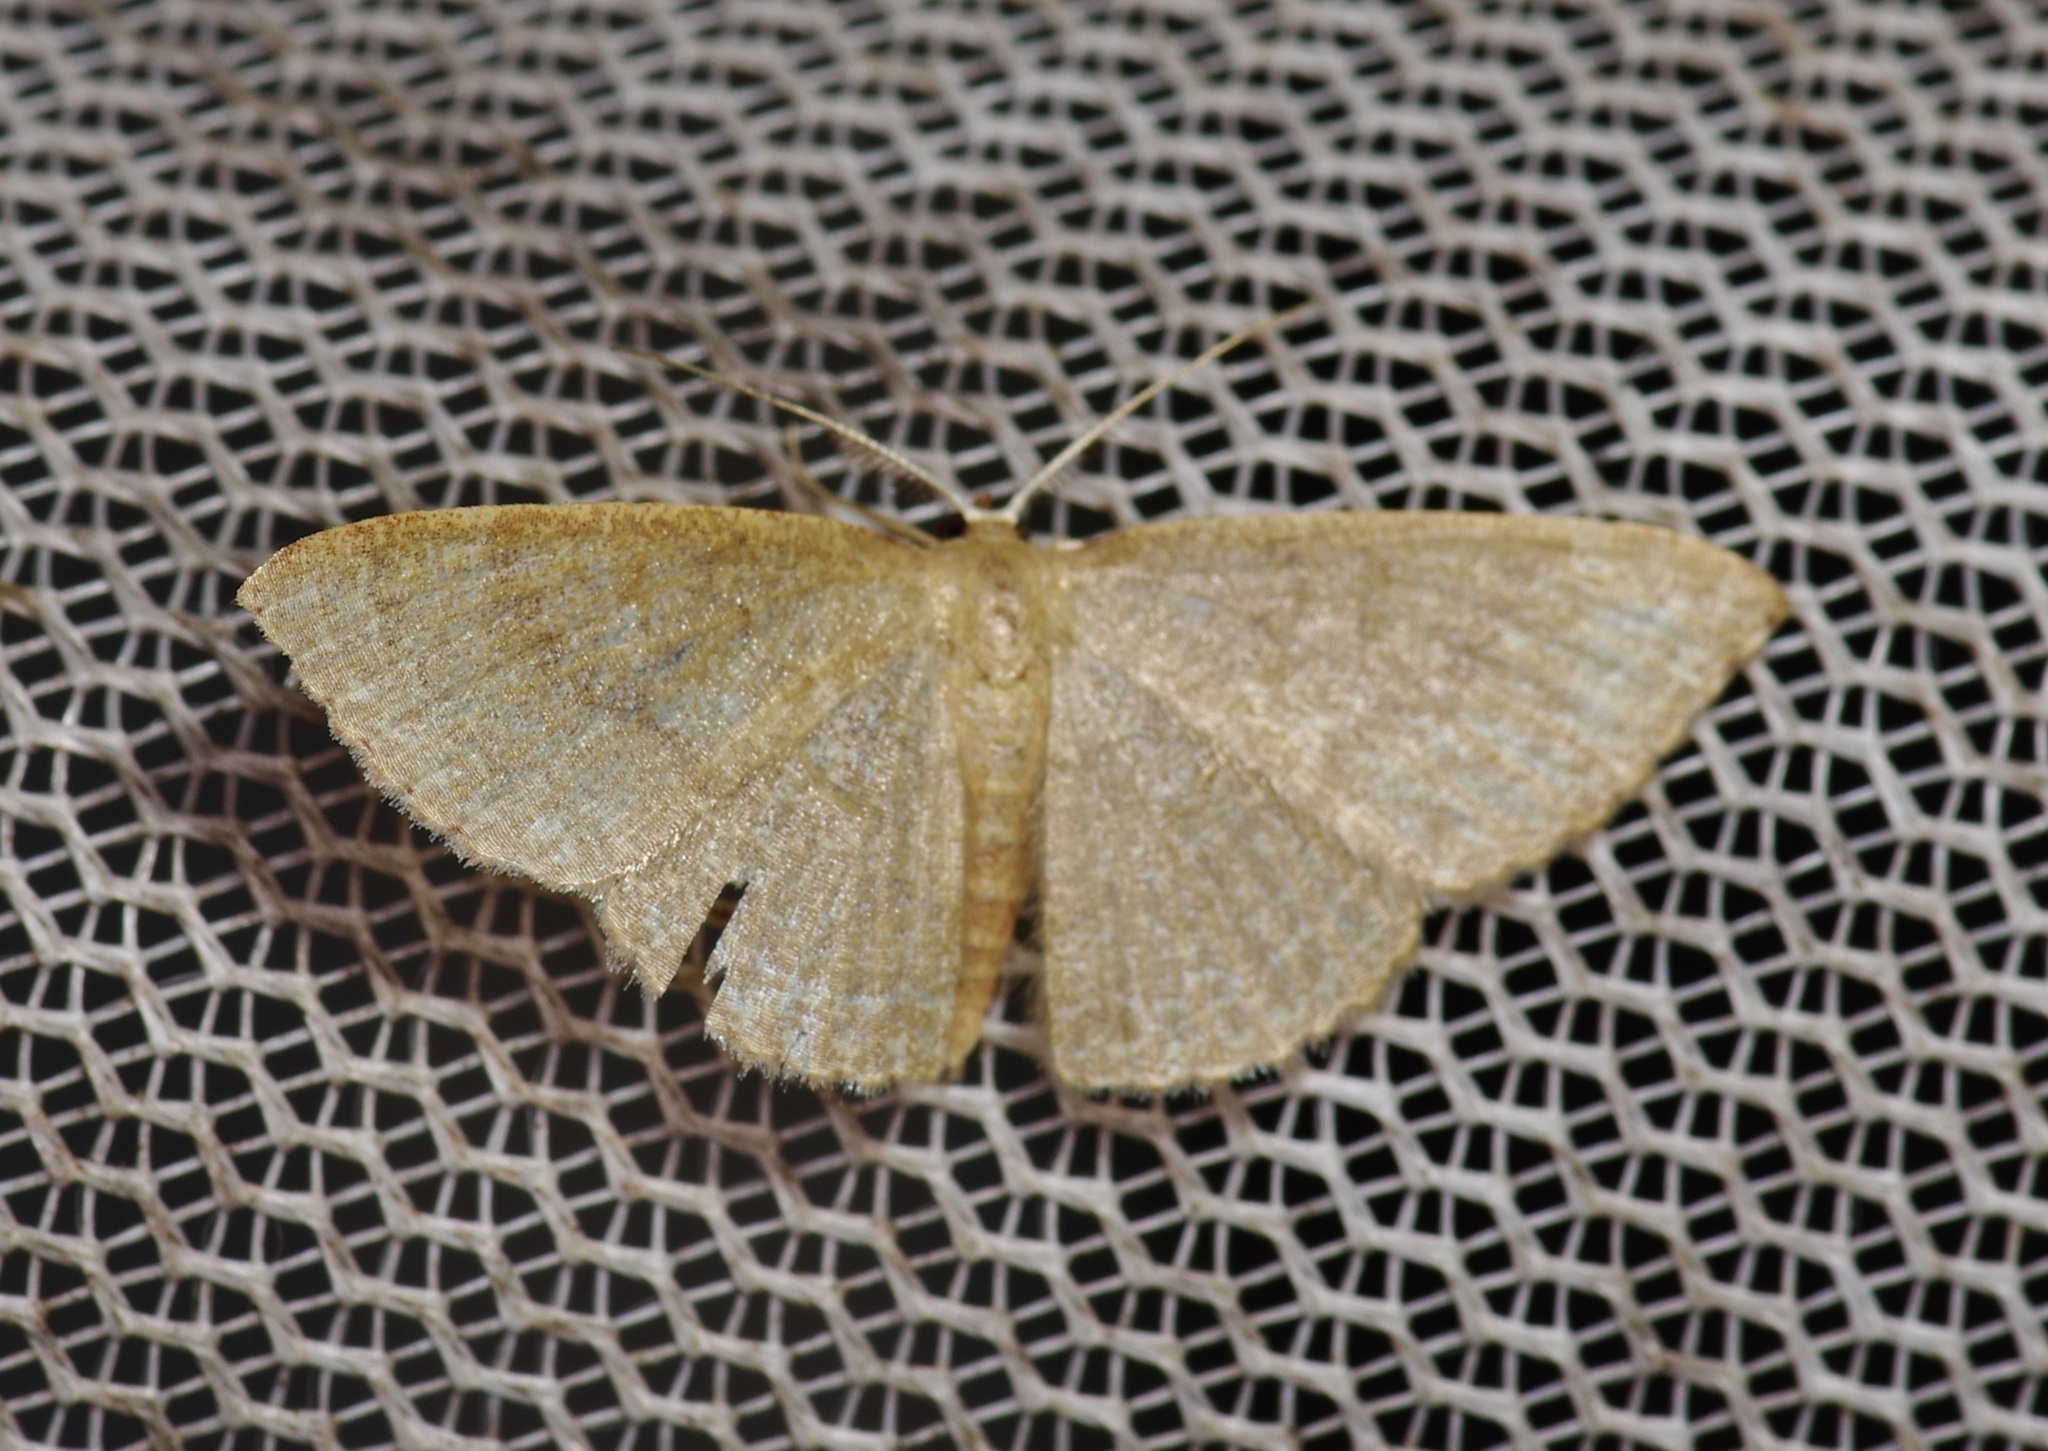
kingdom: Animalia
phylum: Arthropoda
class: Insecta
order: Lepidoptera
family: Geometridae
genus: Pleuroprucha
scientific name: Pleuroprucha insulsaria
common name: Common tan wave
